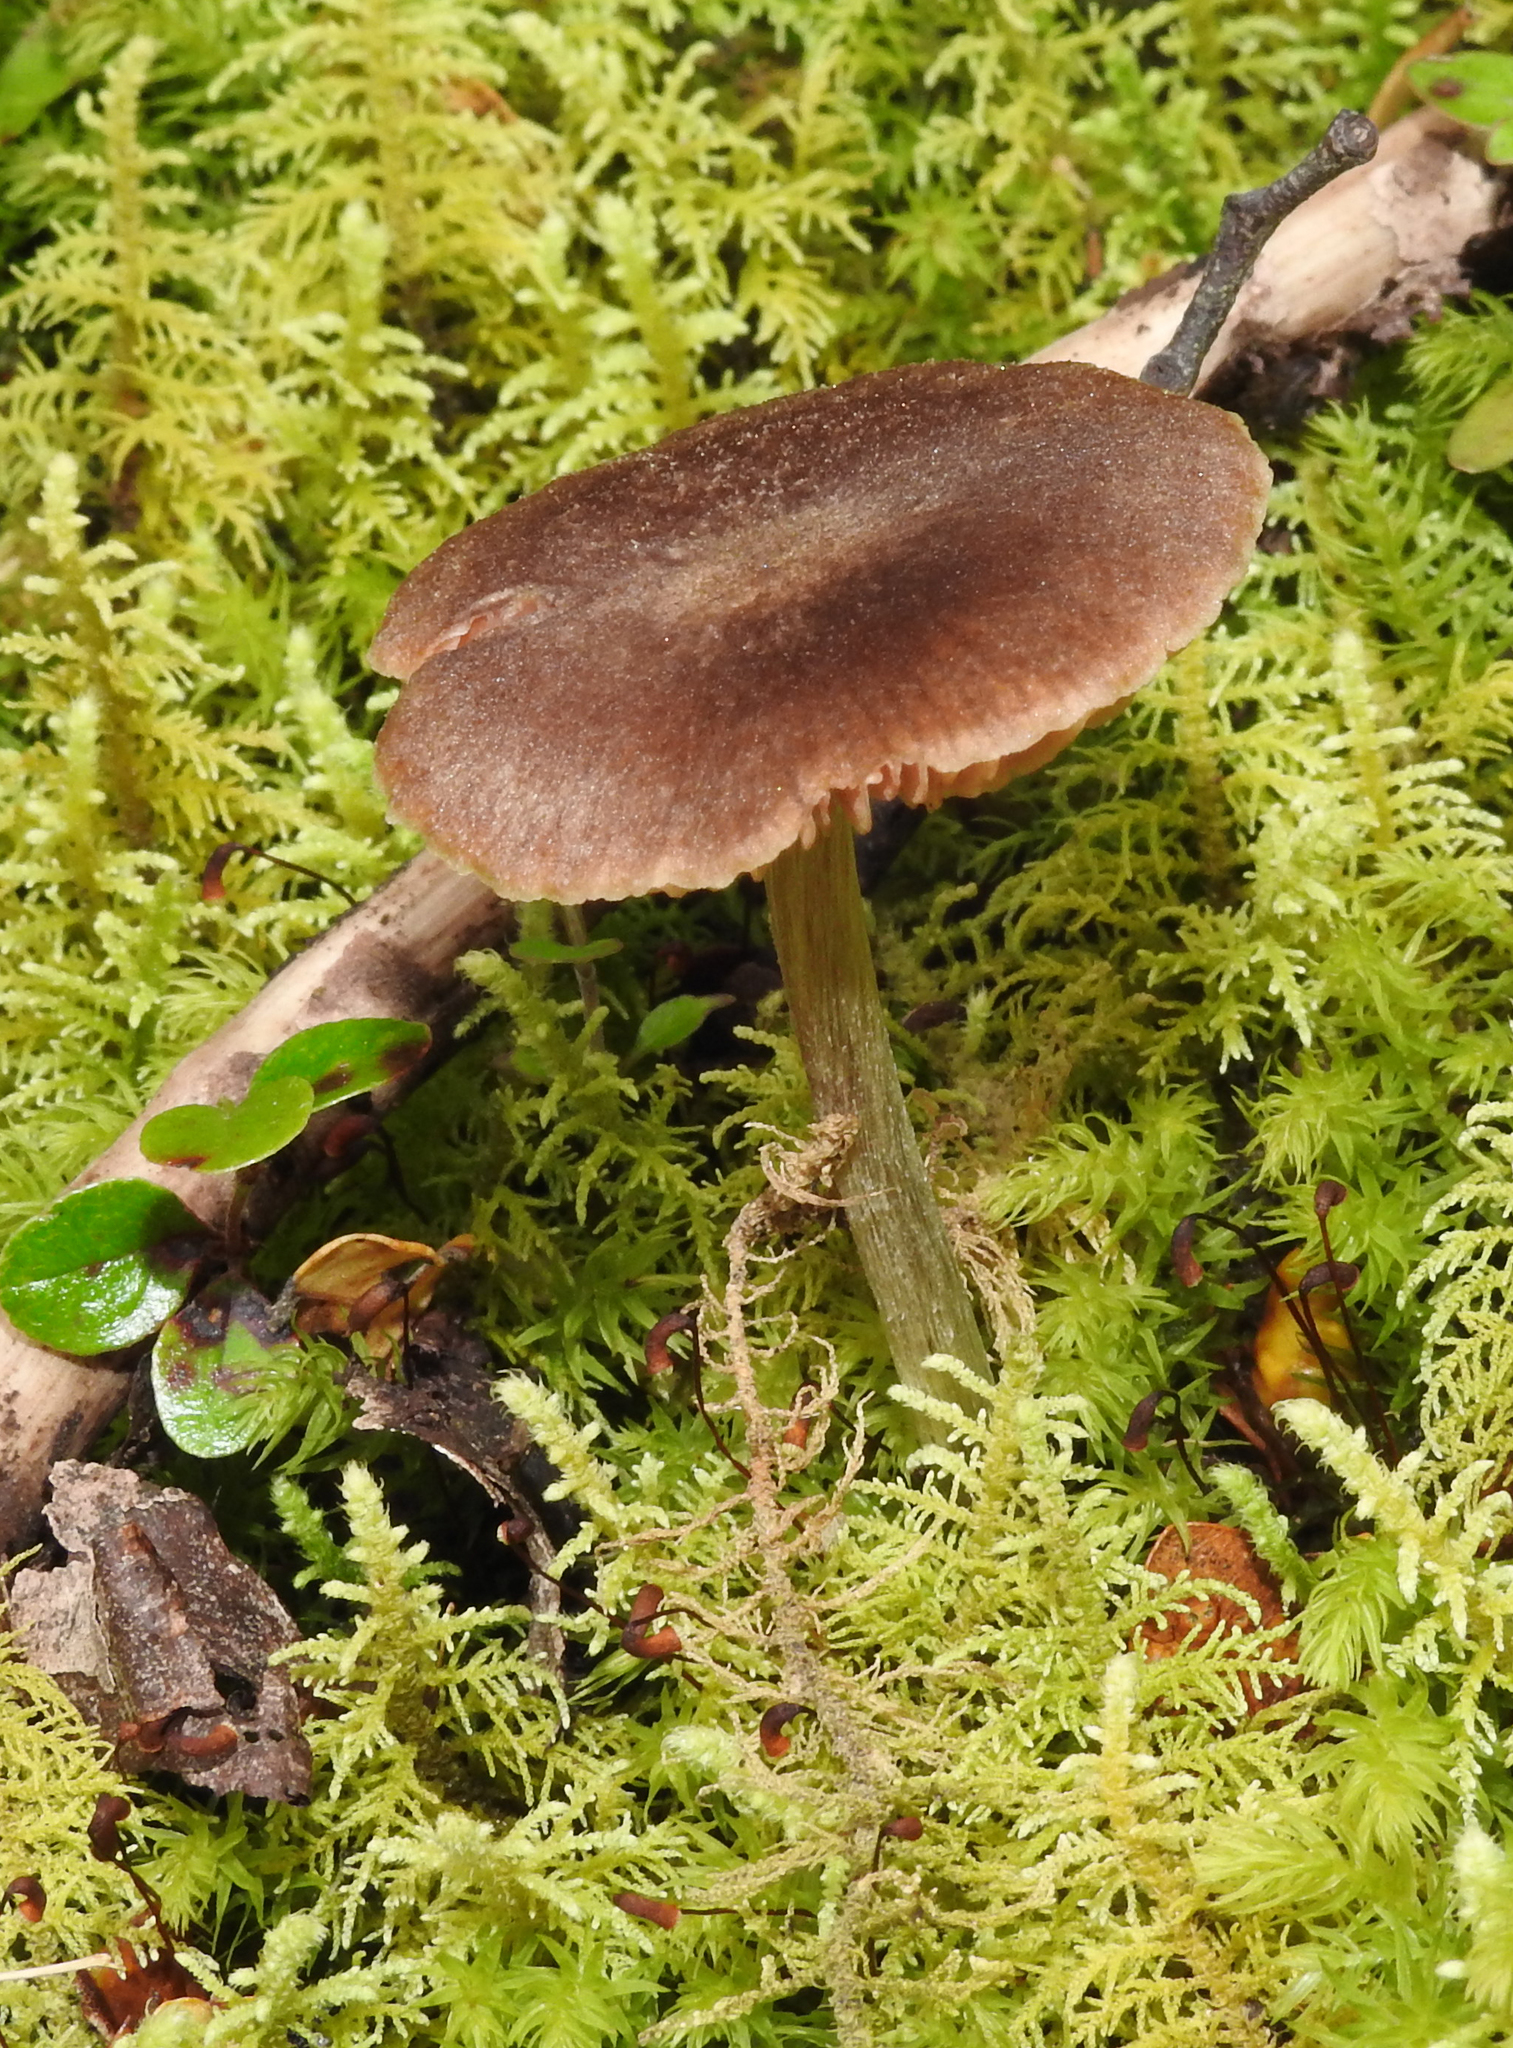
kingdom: Fungi
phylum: Basidiomycota
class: Agaricomycetes
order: Agaricales
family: Entolomataceae
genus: Entoloma
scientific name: Entoloma translucidum
